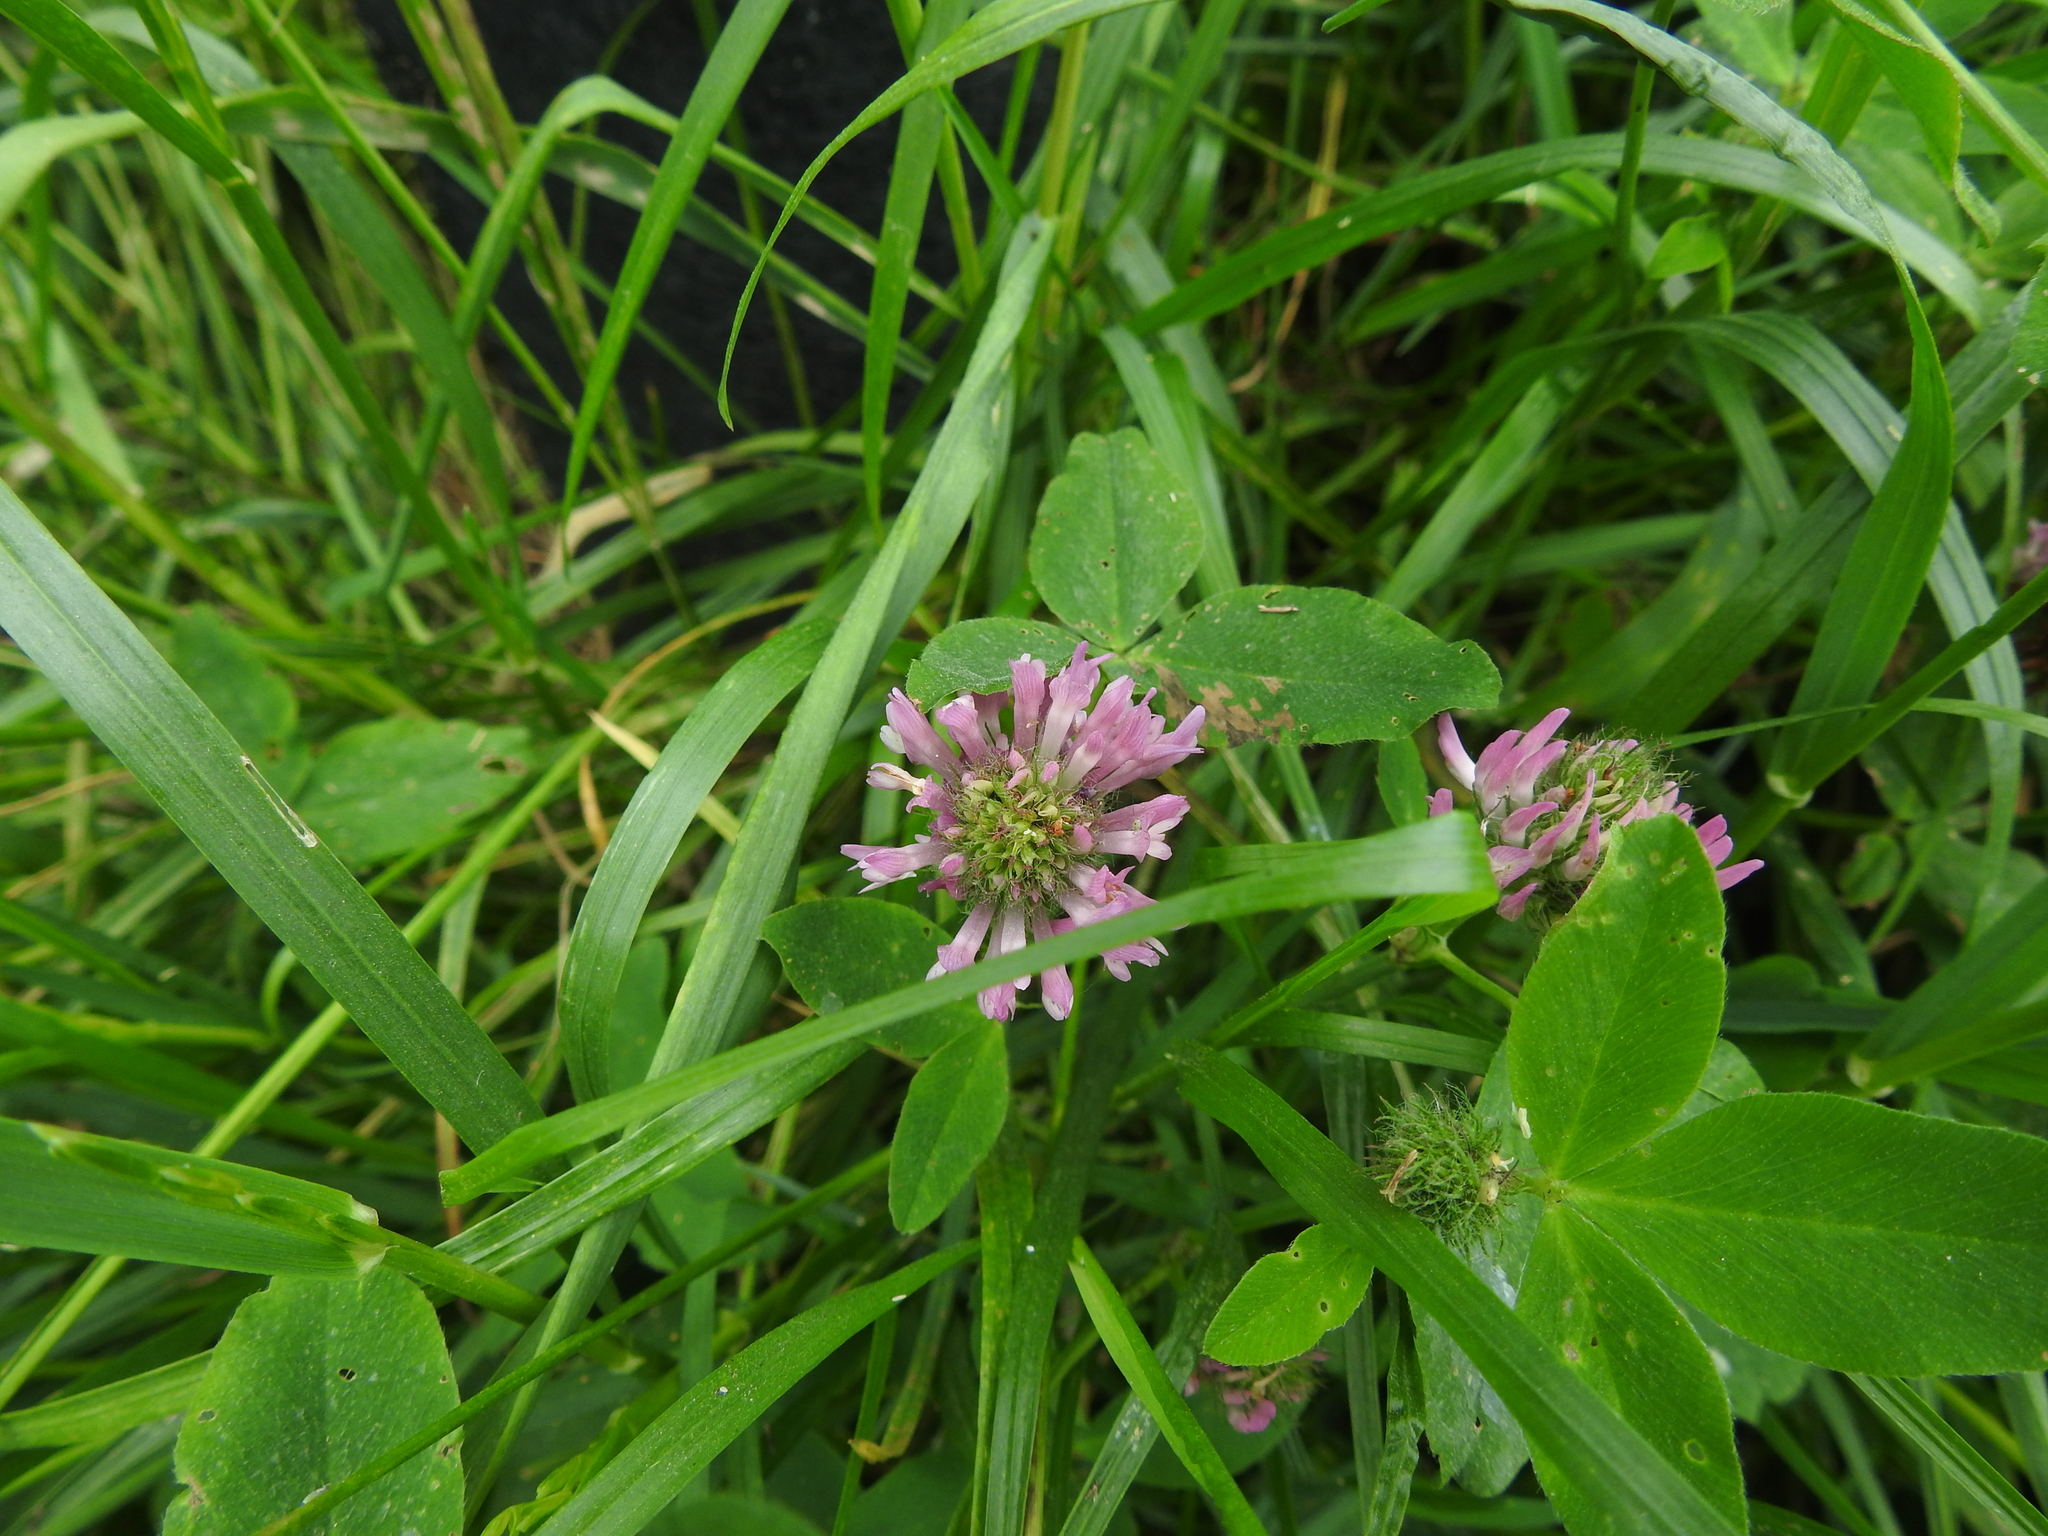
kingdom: Plantae
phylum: Tracheophyta
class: Magnoliopsida
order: Fabales
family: Fabaceae
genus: Trifolium
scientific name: Trifolium pratense
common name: Red clover
